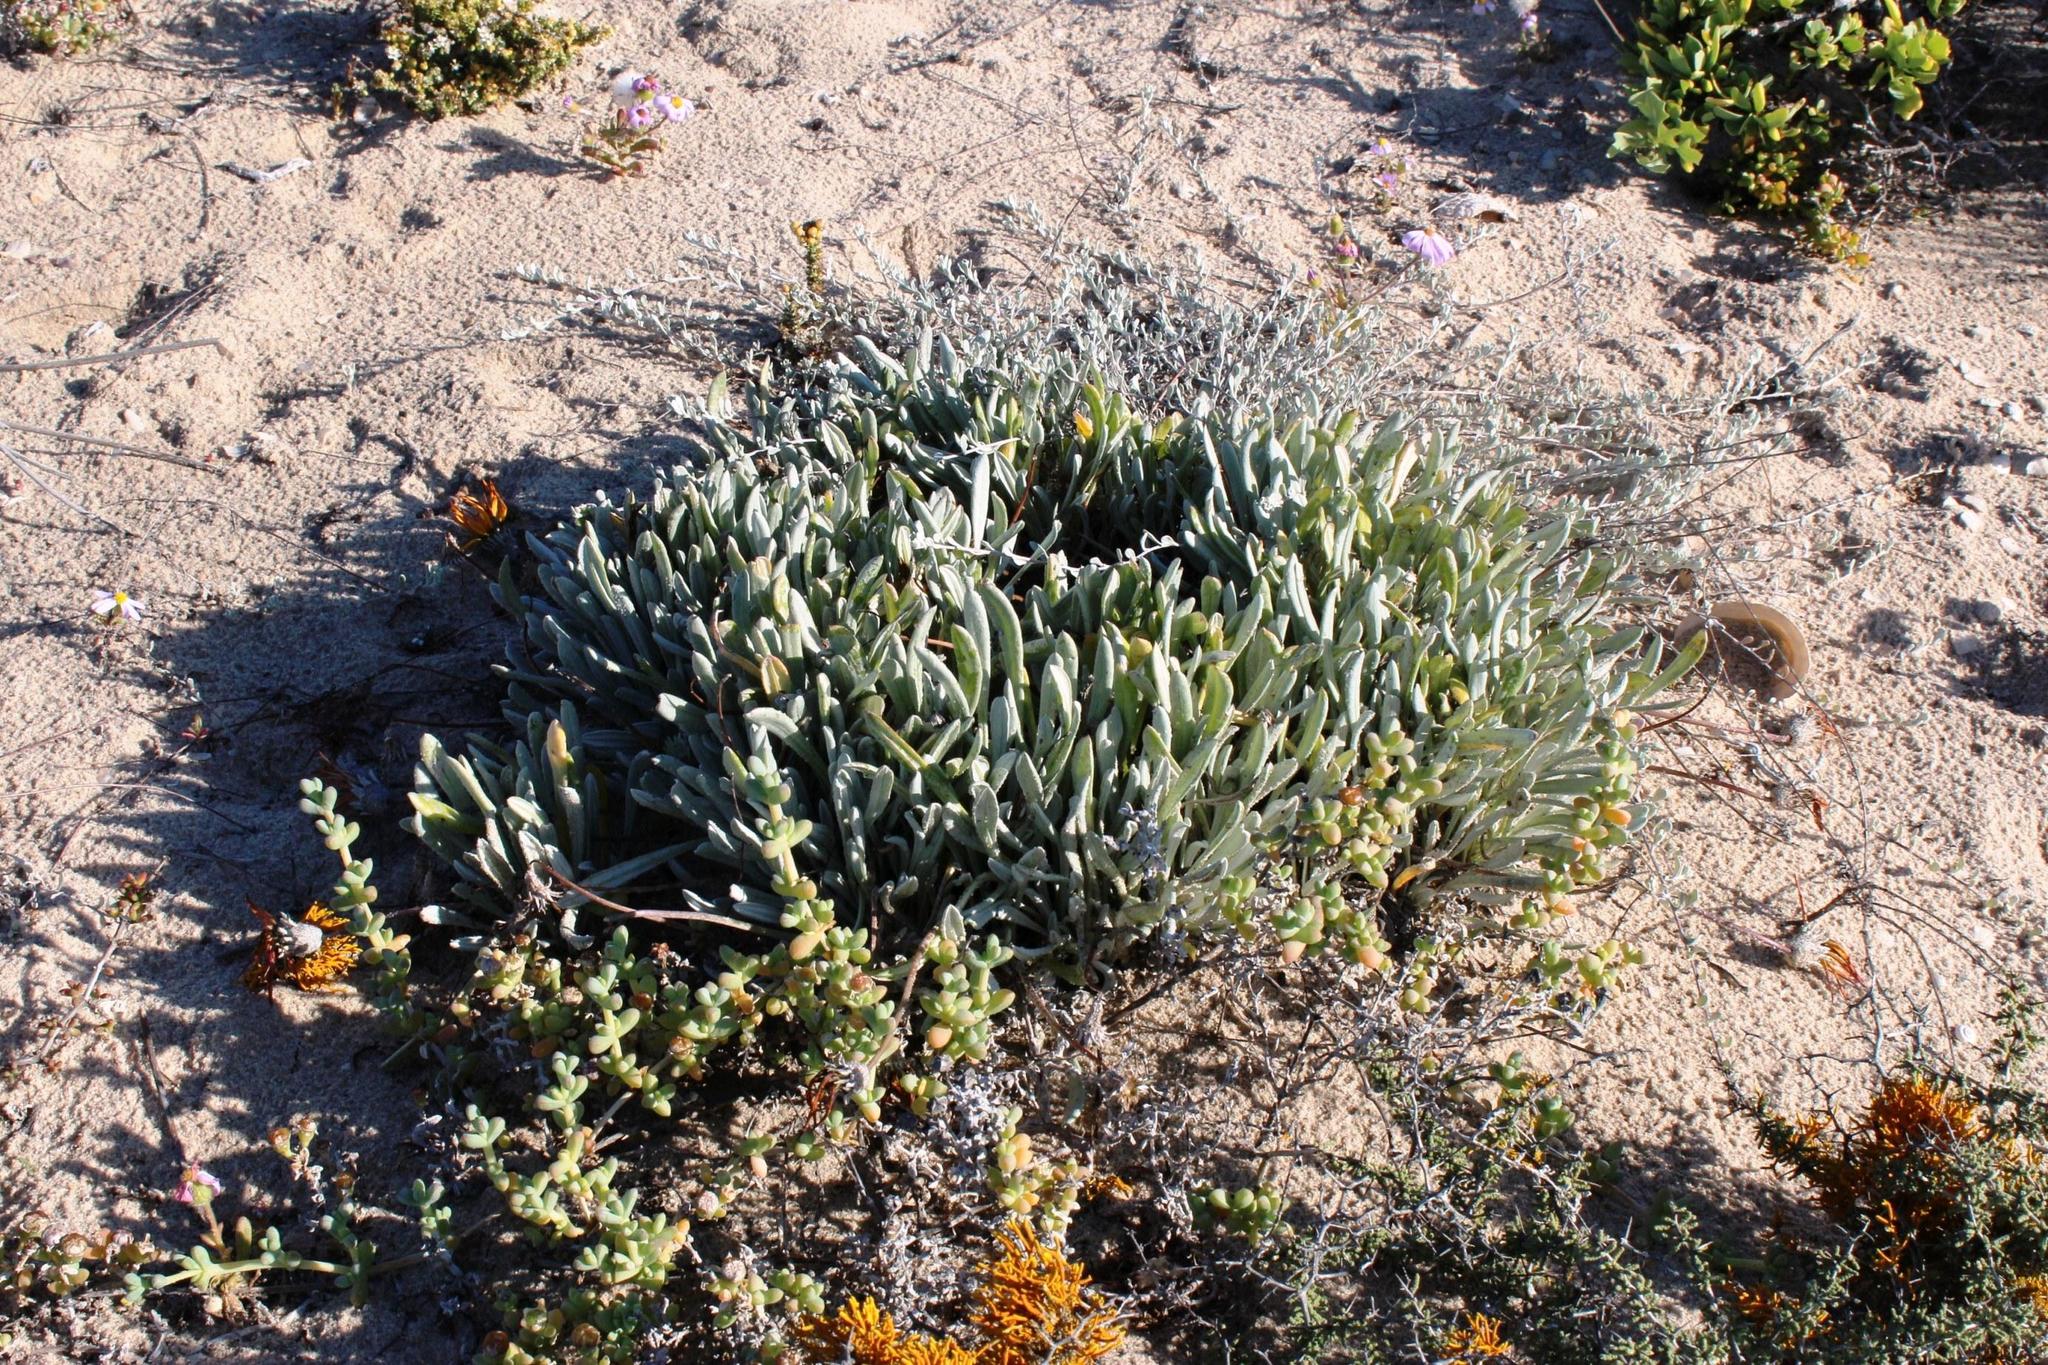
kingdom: Plantae
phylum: Tracheophyta
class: Magnoliopsida
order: Asterales
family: Asteraceae
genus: Gazania
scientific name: Gazania splendidissima
